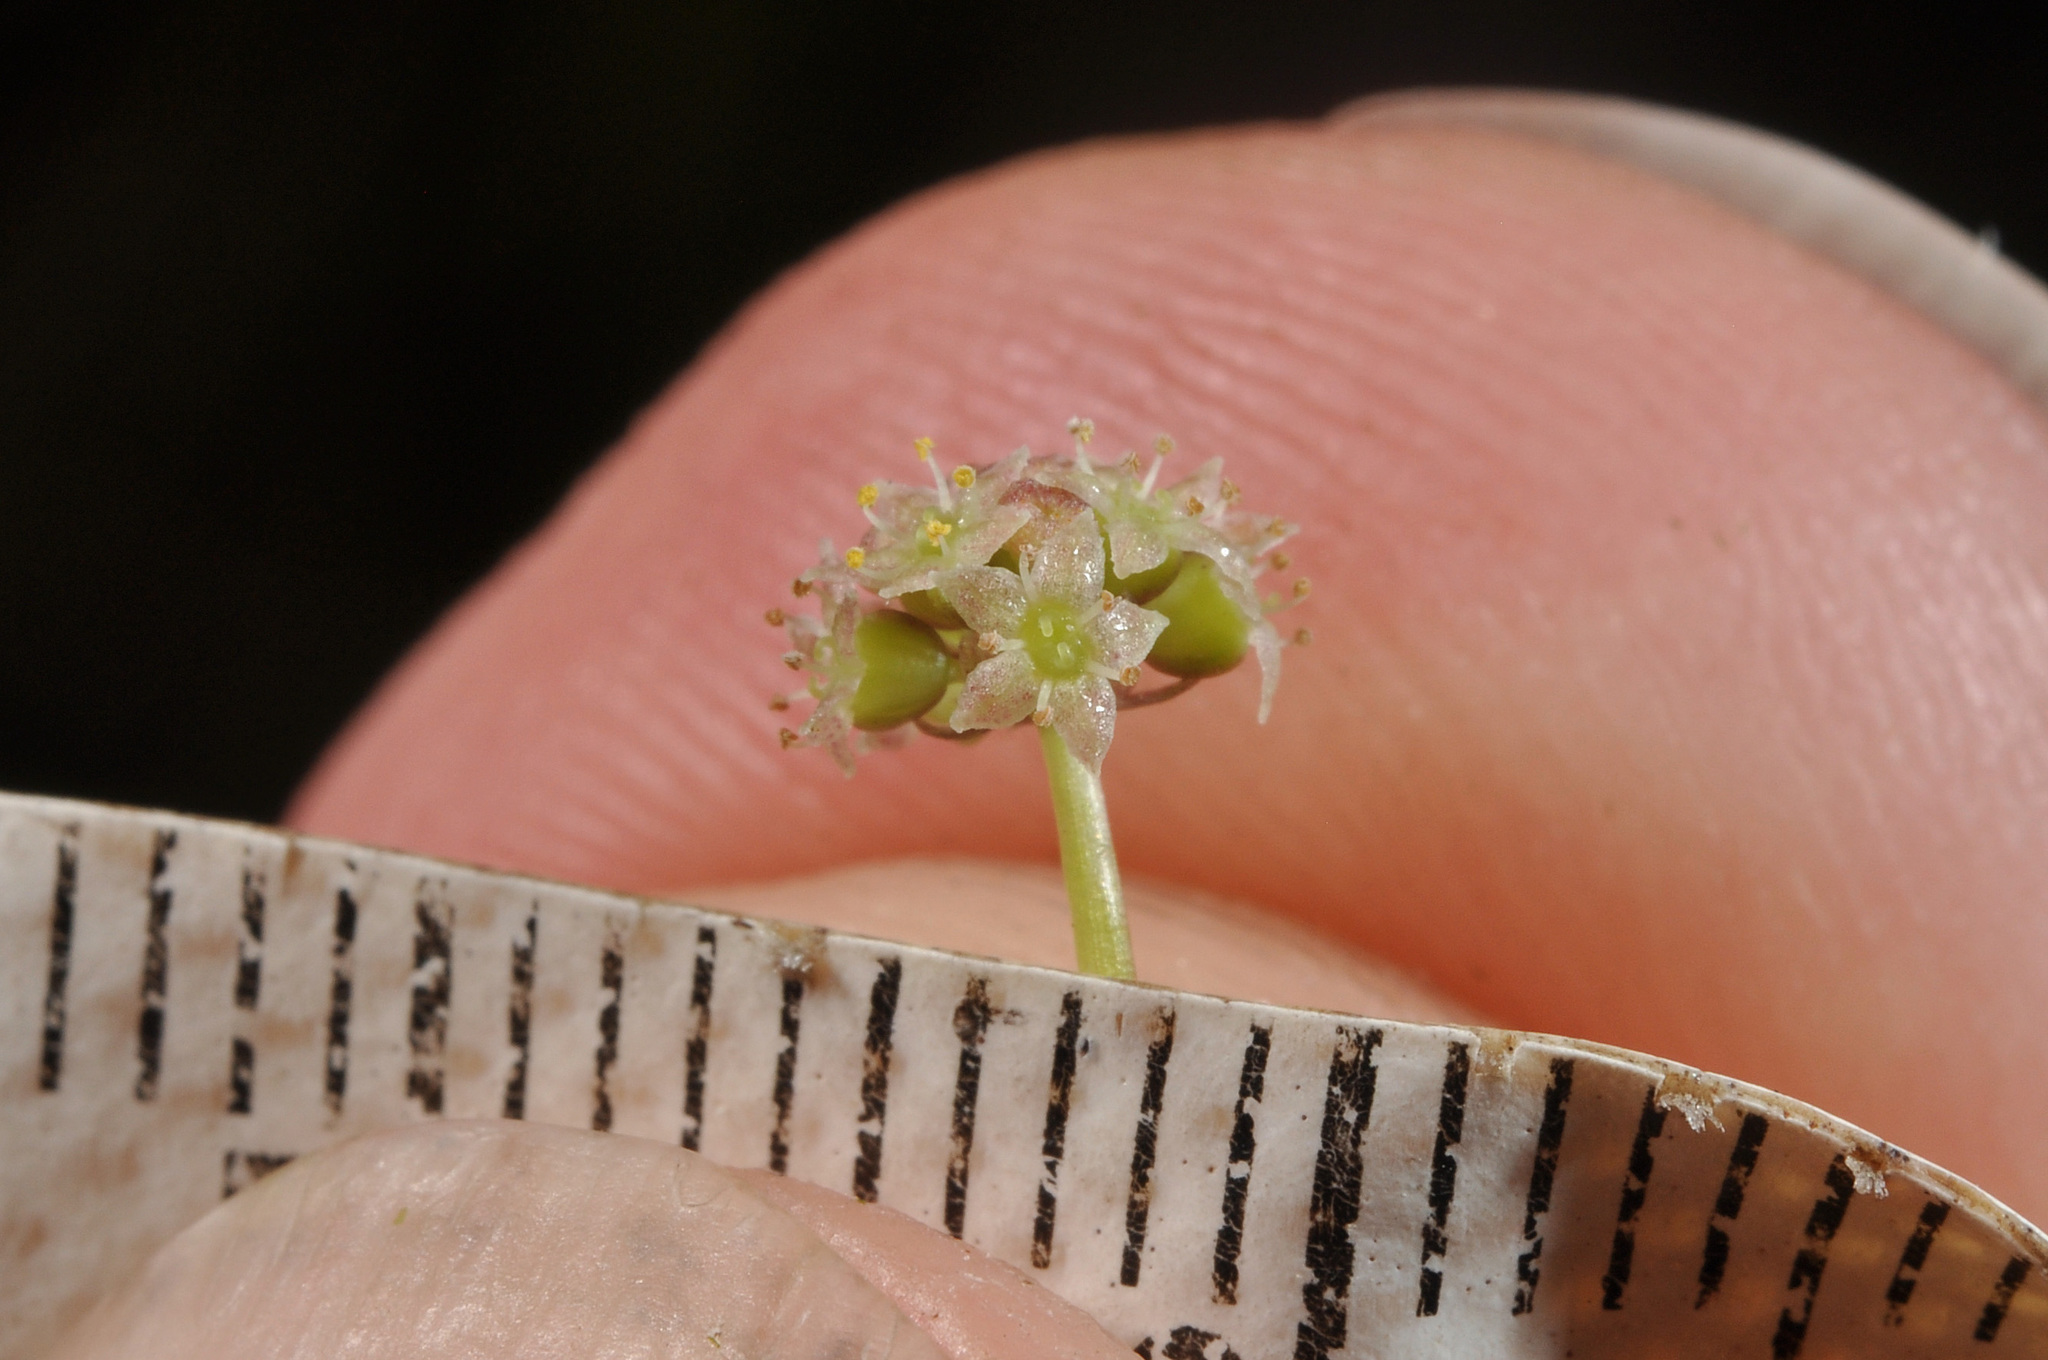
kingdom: Plantae
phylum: Tracheophyta
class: Magnoliopsida
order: Apiales
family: Araliaceae
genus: Hydrocotyle
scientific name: Hydrocotyle pterocarpa
